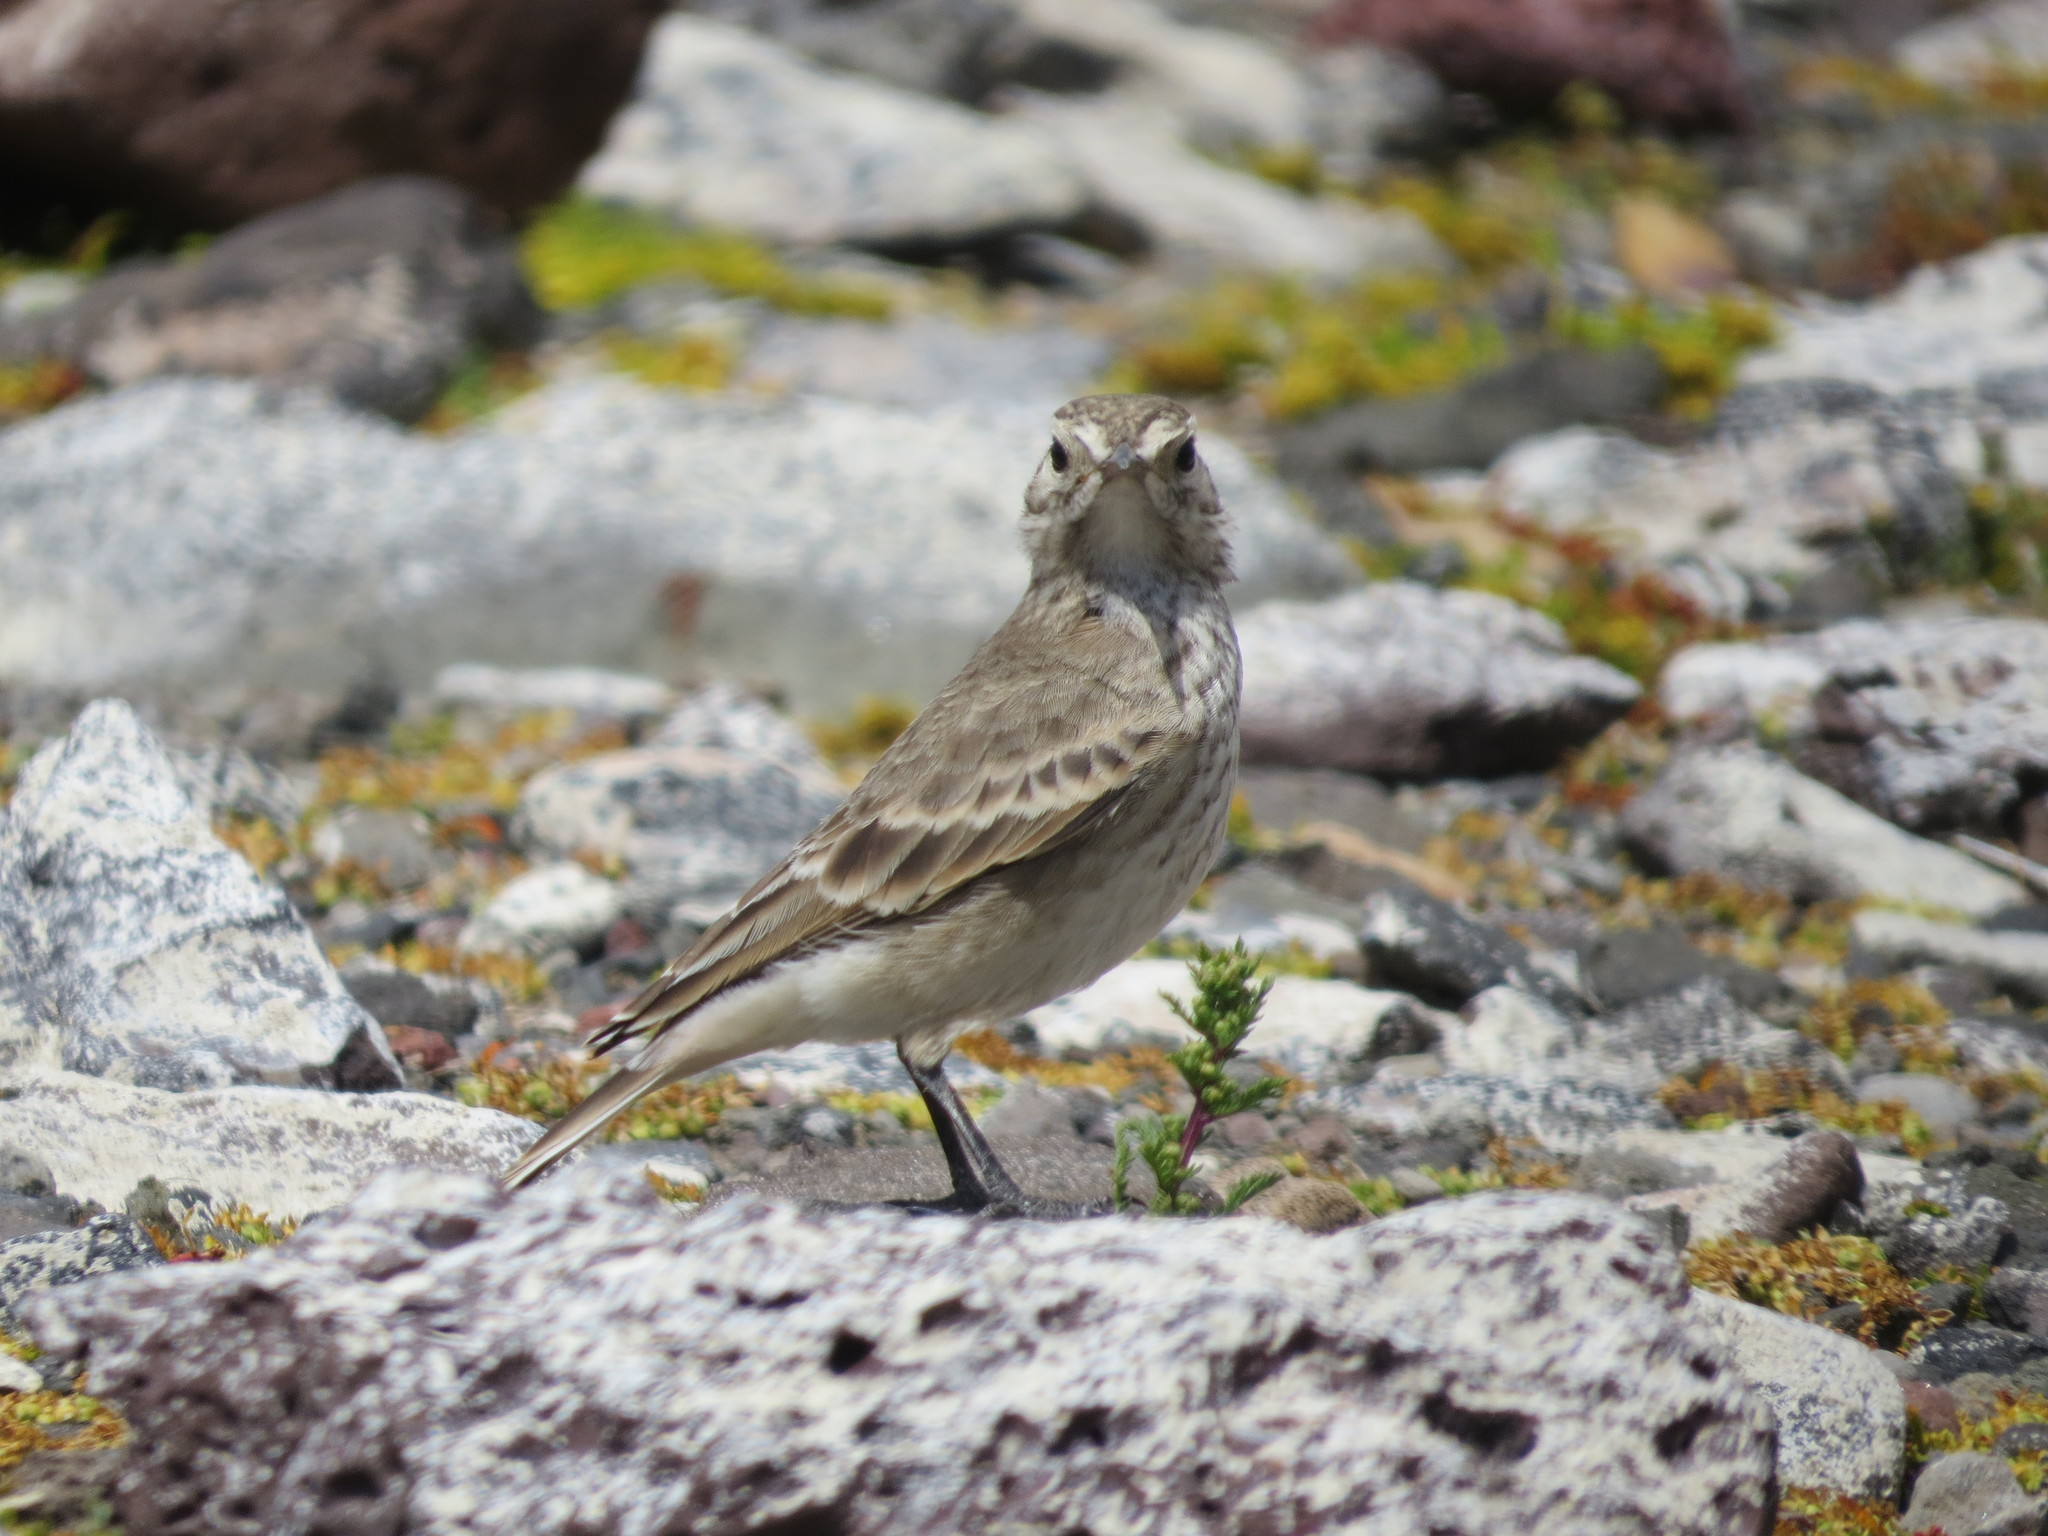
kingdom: Animalia
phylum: Chordata
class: Aves
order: Passeriformes
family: Furnariidae
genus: Geositta
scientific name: Geositta cunicularia
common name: Common miner
